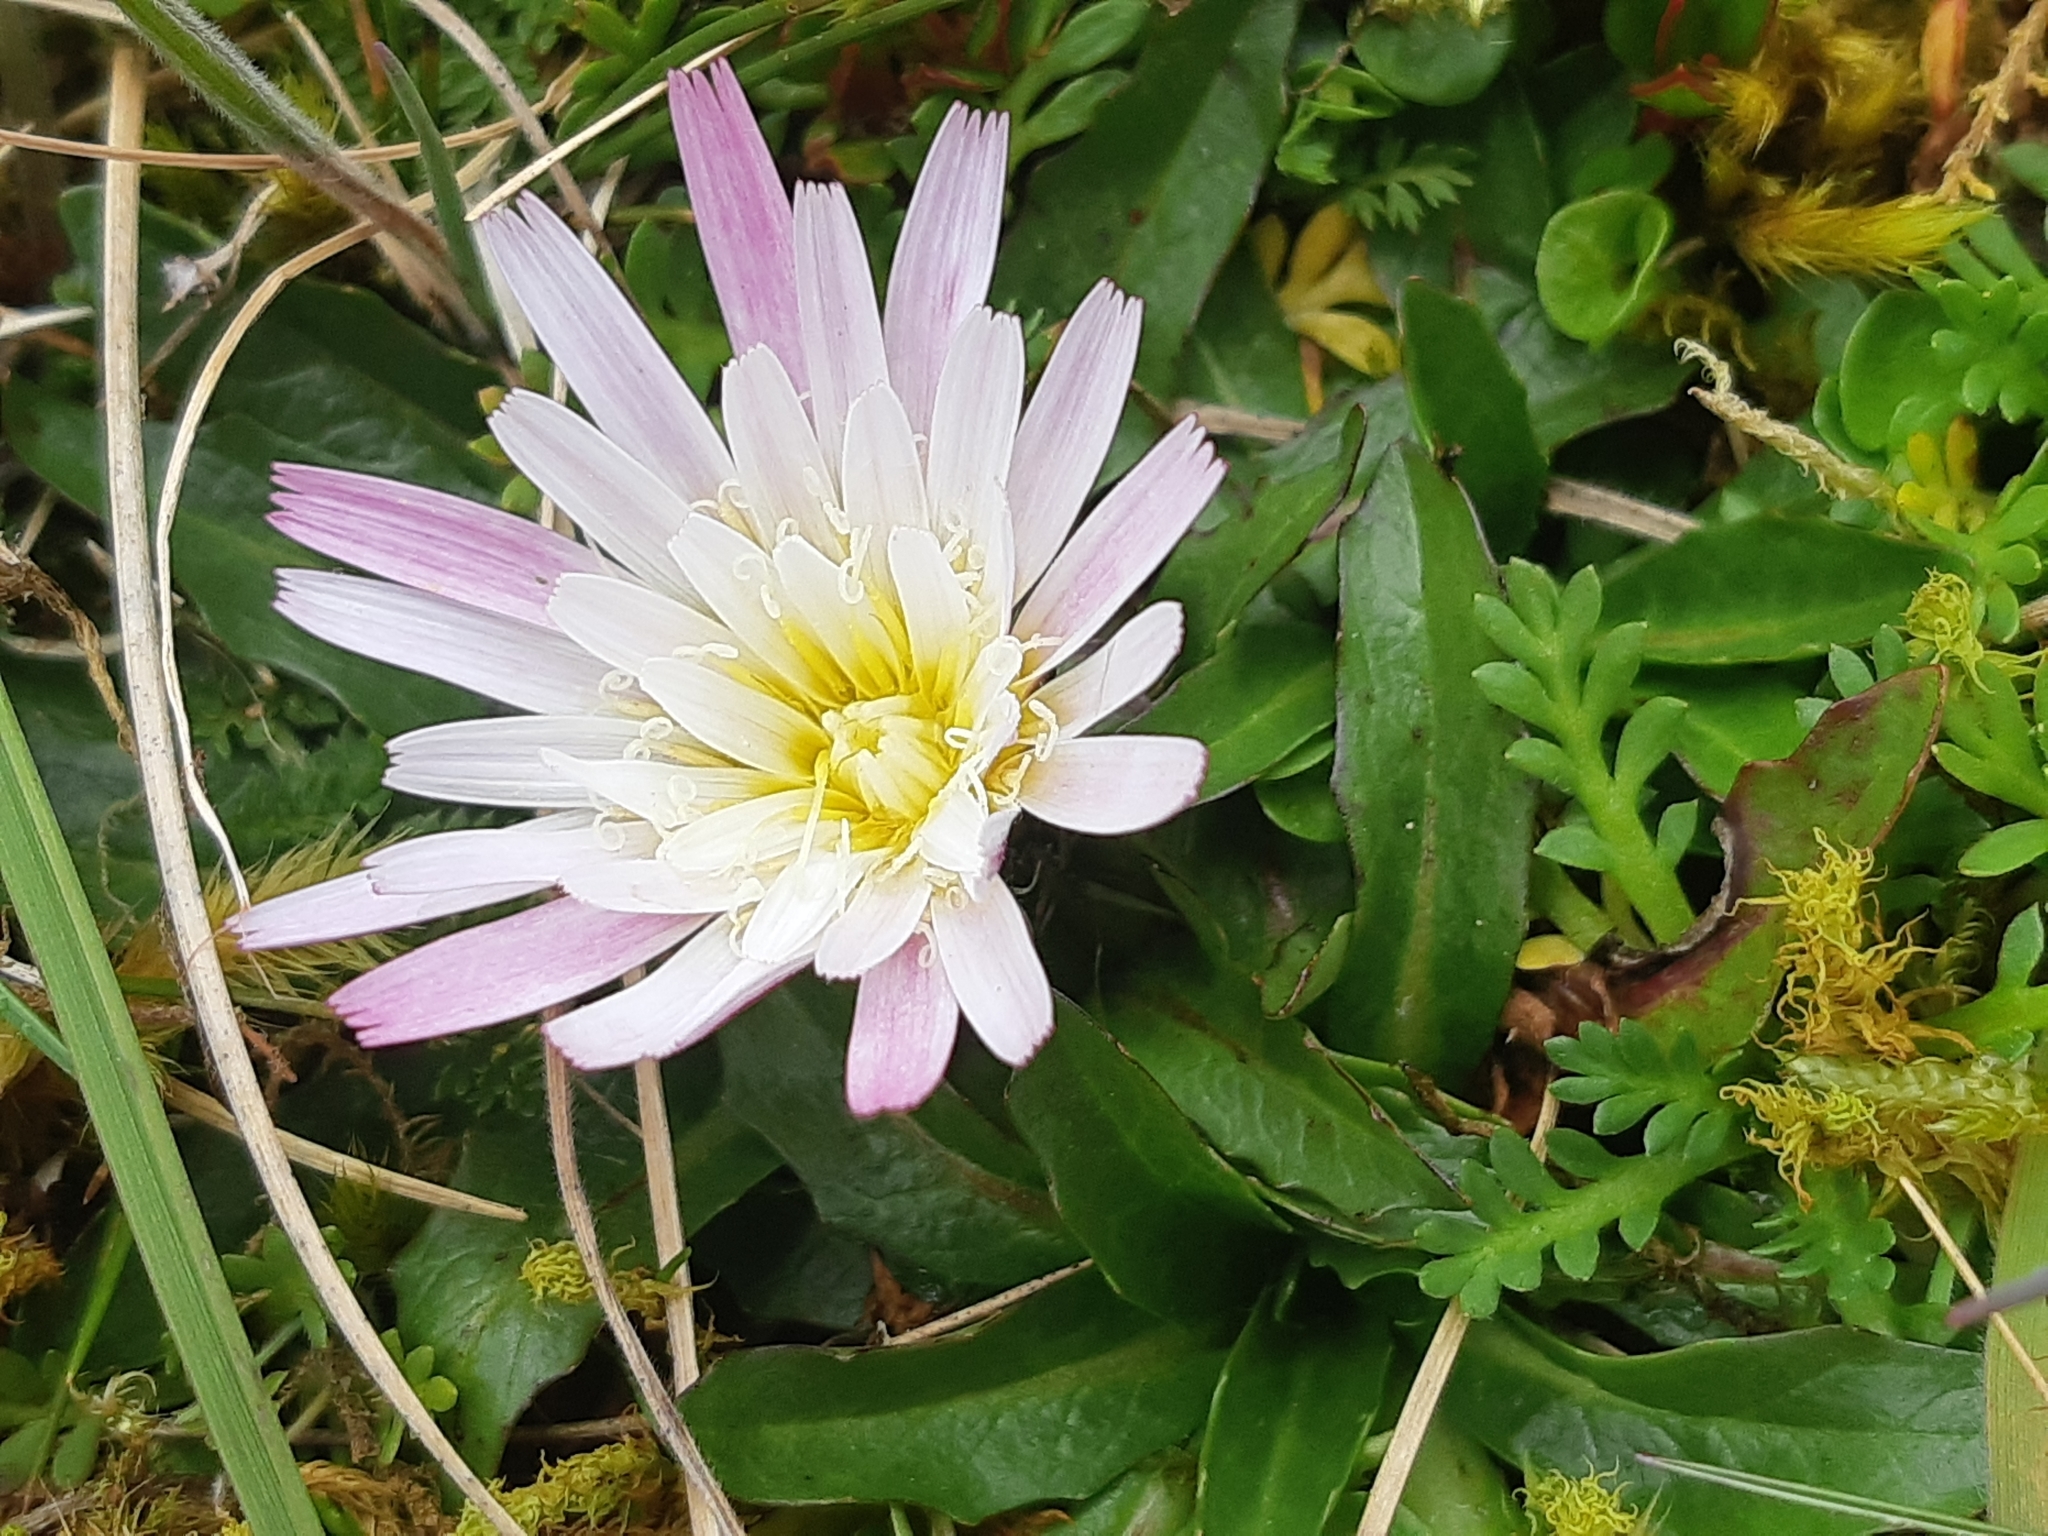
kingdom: Plantae
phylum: Tracheophyta
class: Magnoliopsida
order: Asterales
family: Asteraceae
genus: Hypochaeris
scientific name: Hypochaeris sessiliflora
